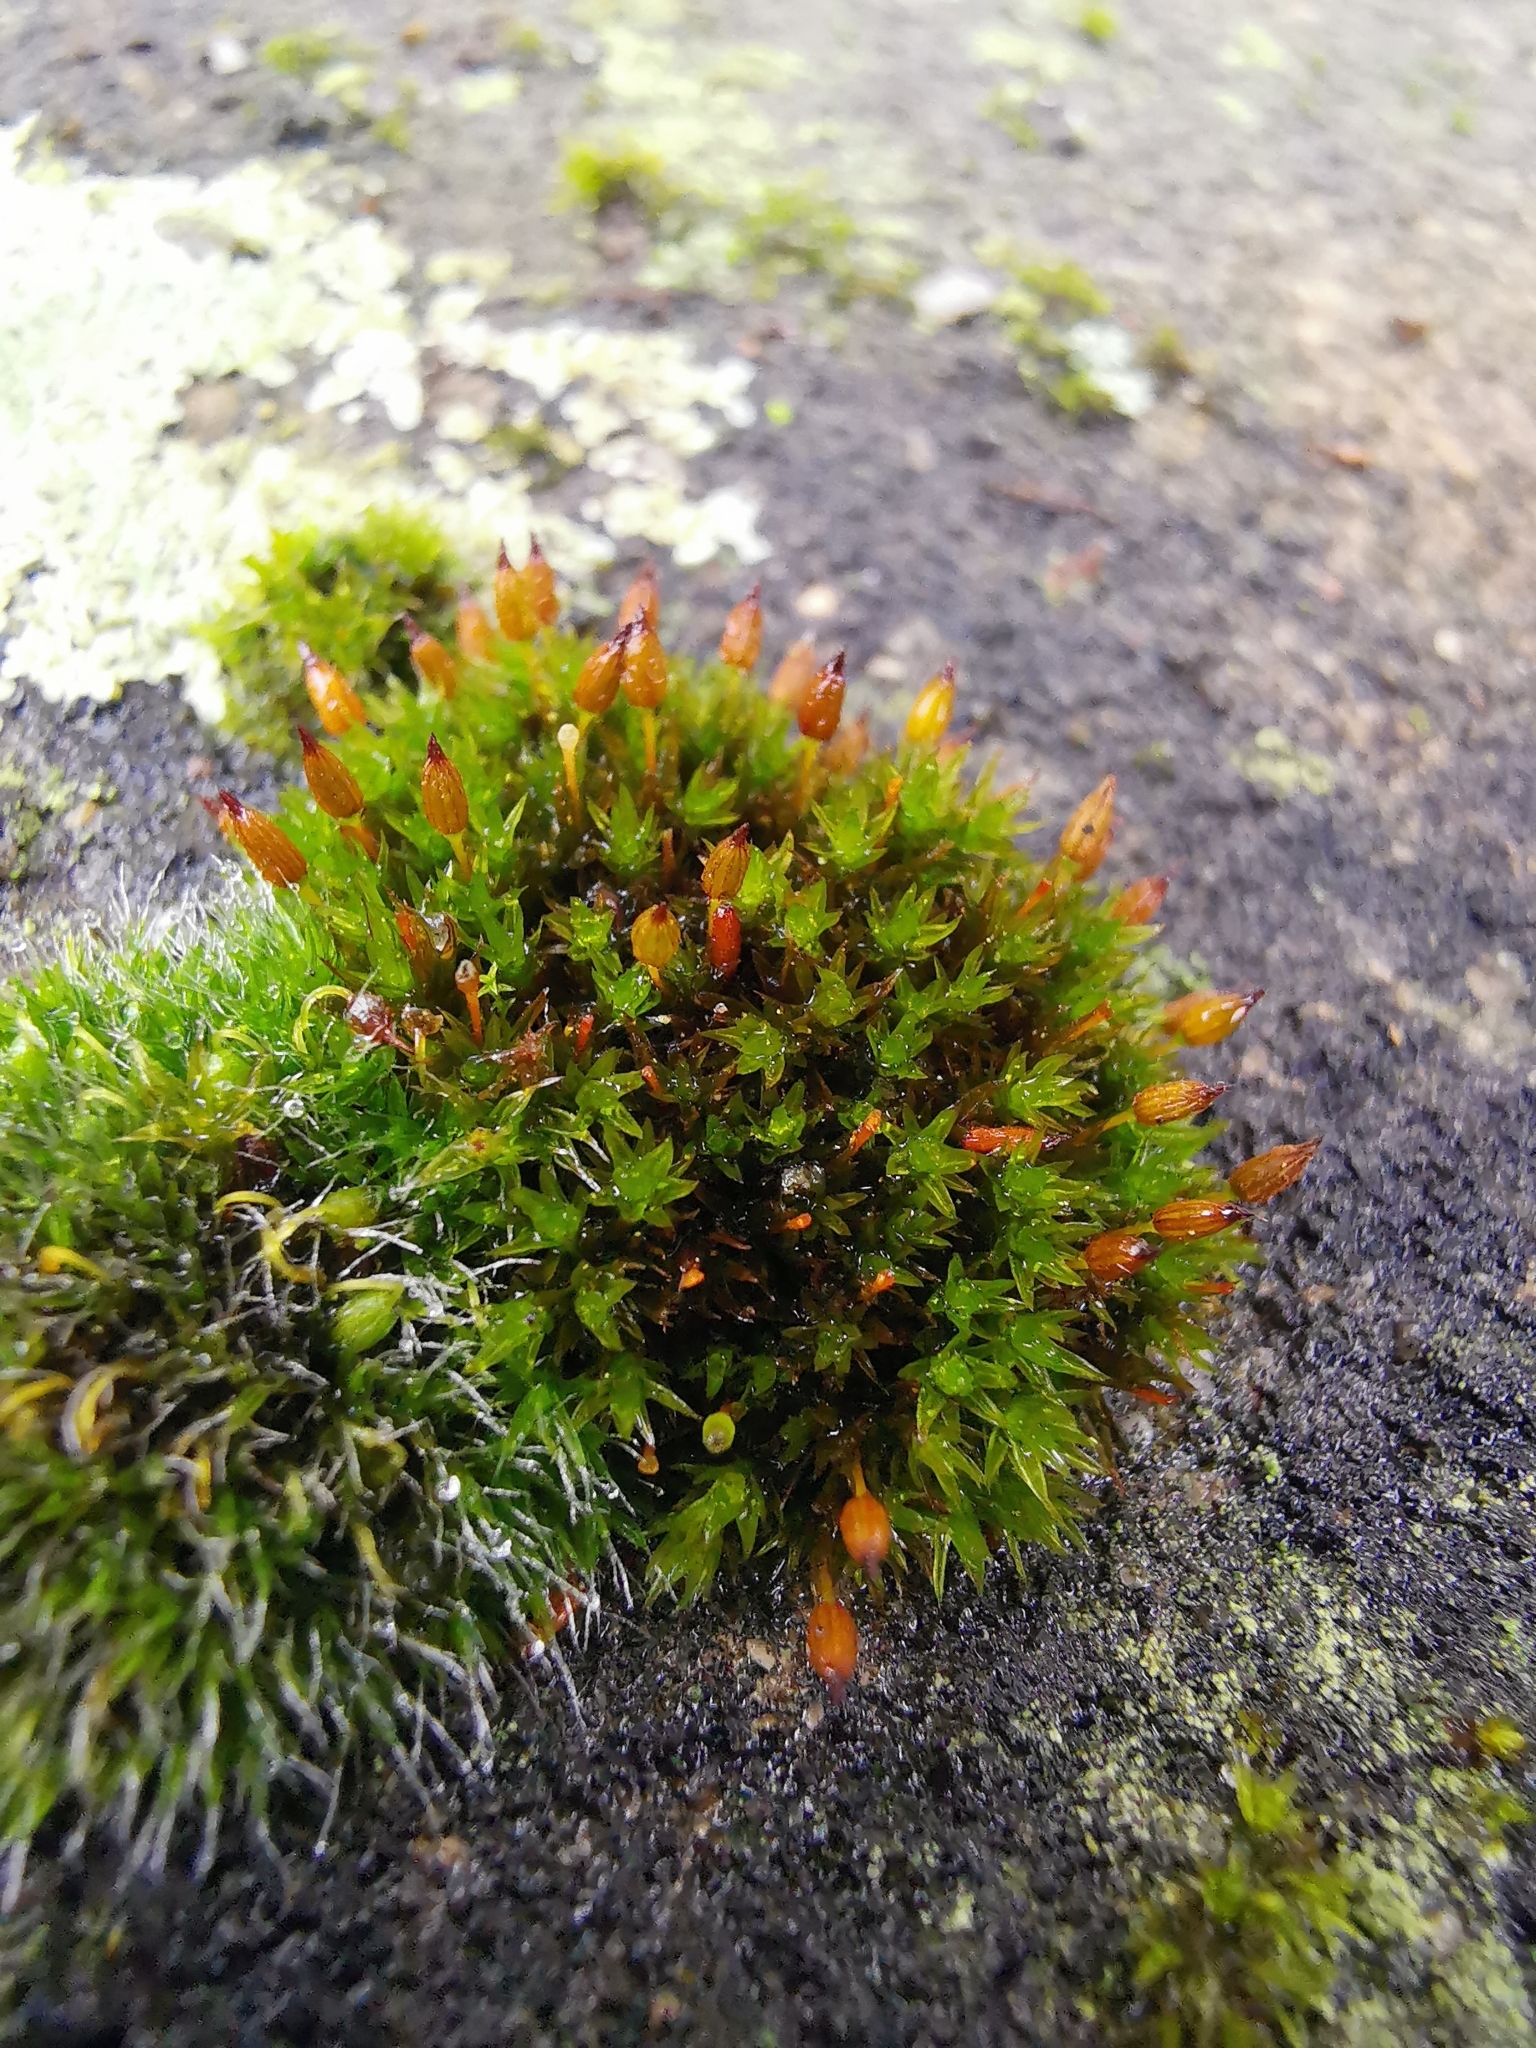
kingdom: Plantae
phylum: Bryophyta
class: Bryopsida
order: Orthotrichales
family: Orthotrichaceae
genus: Orthotrichum
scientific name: Orthotrichum anomalum
